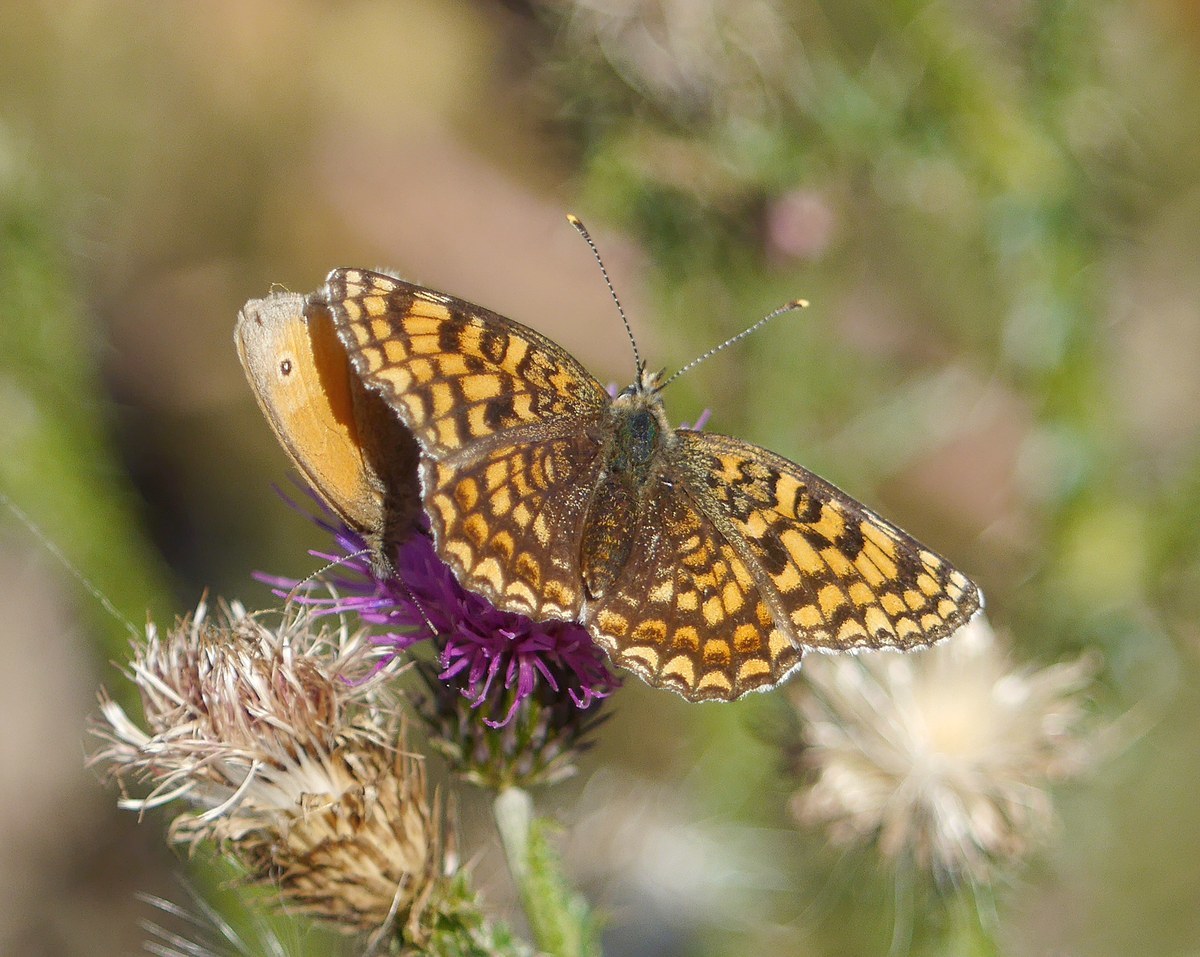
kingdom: Animalia
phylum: Arthropoda
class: Insecta
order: Lepidoptera
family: Nymphalidae
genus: Melitaea
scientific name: Melitaea phoebe
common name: Knapweed fritillary
